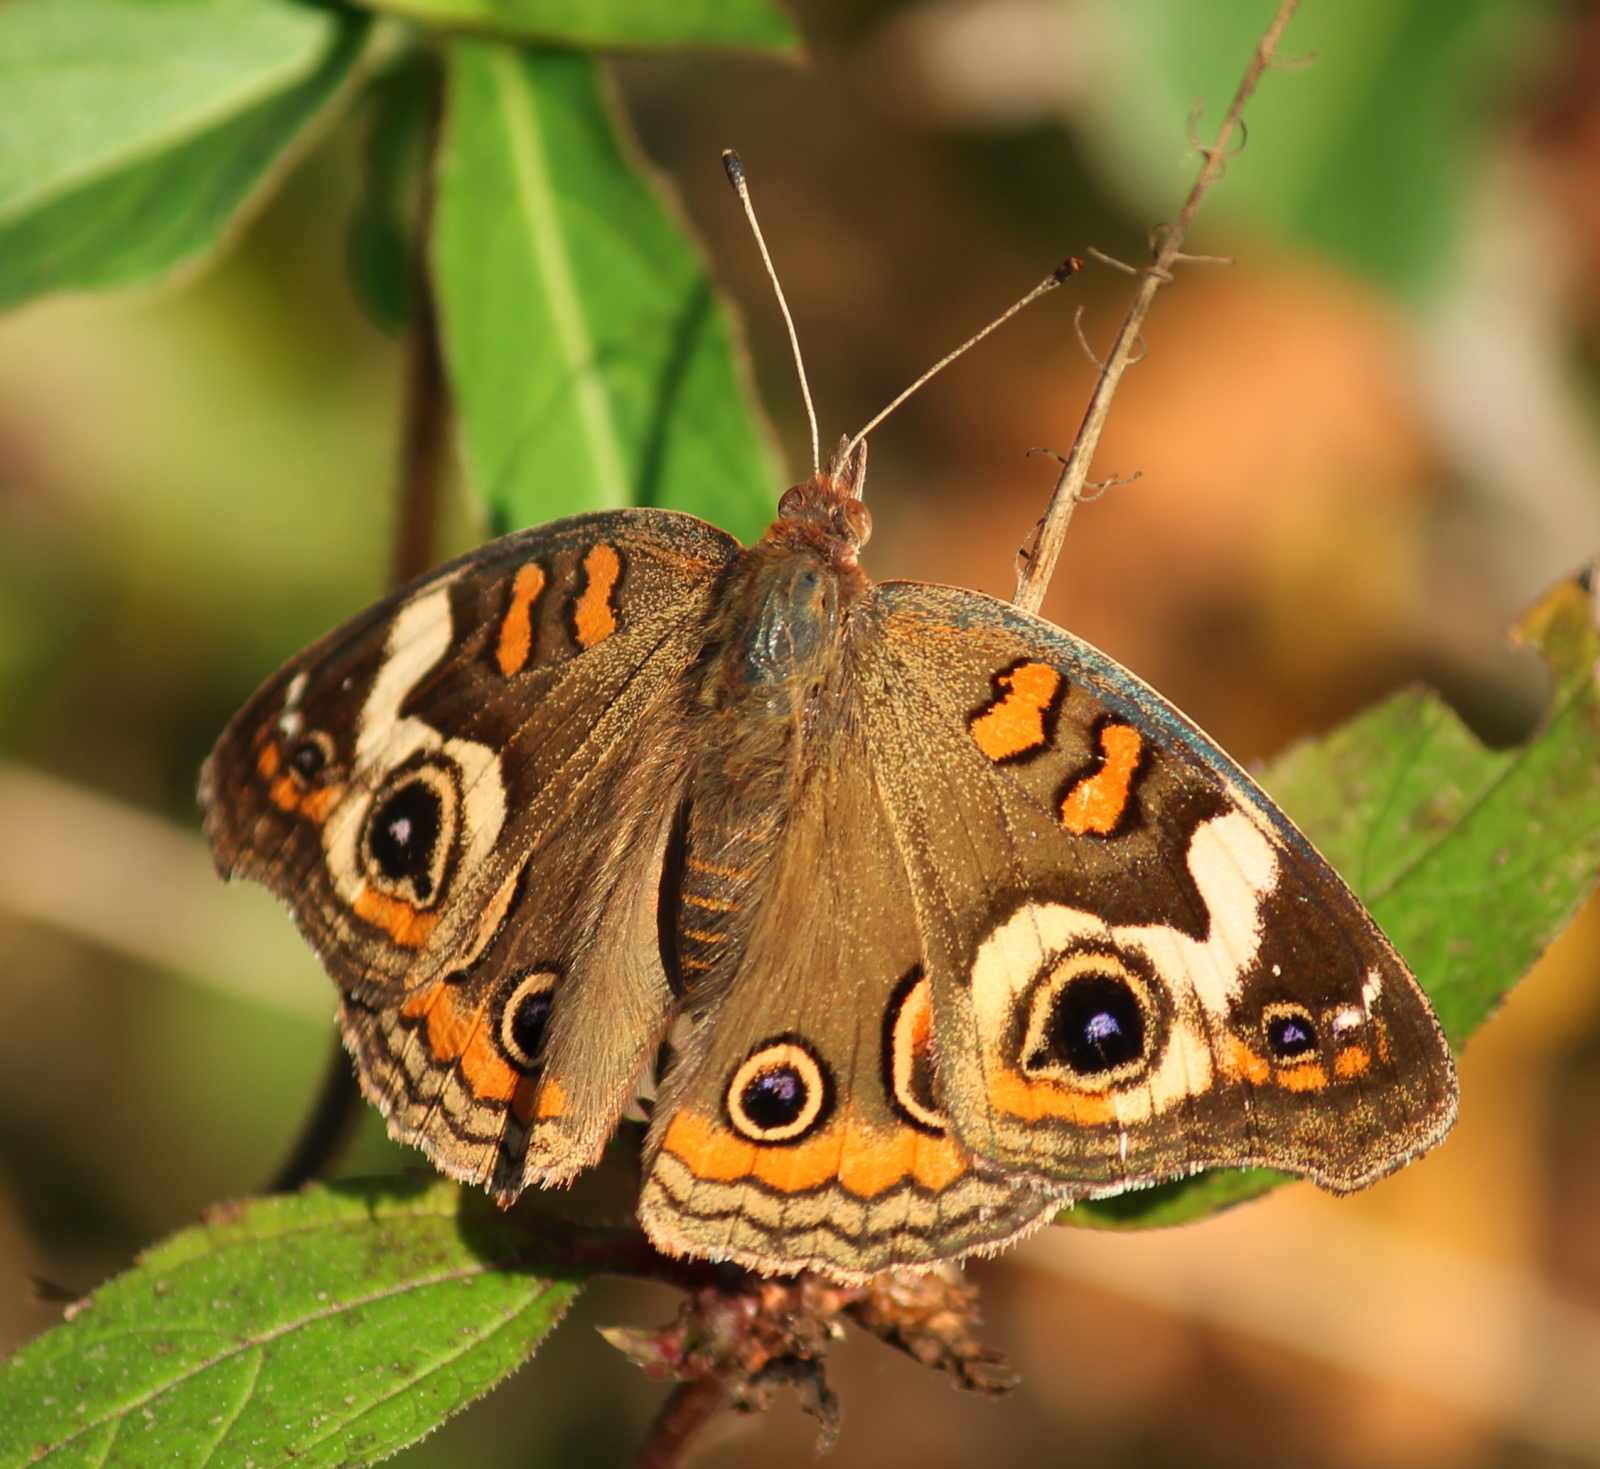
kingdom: Animalia
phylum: Arthropoda
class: Insecta
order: Lepidoptera
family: Nymphalidae
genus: Junonia
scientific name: Junonia coenia
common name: Common buckeye
